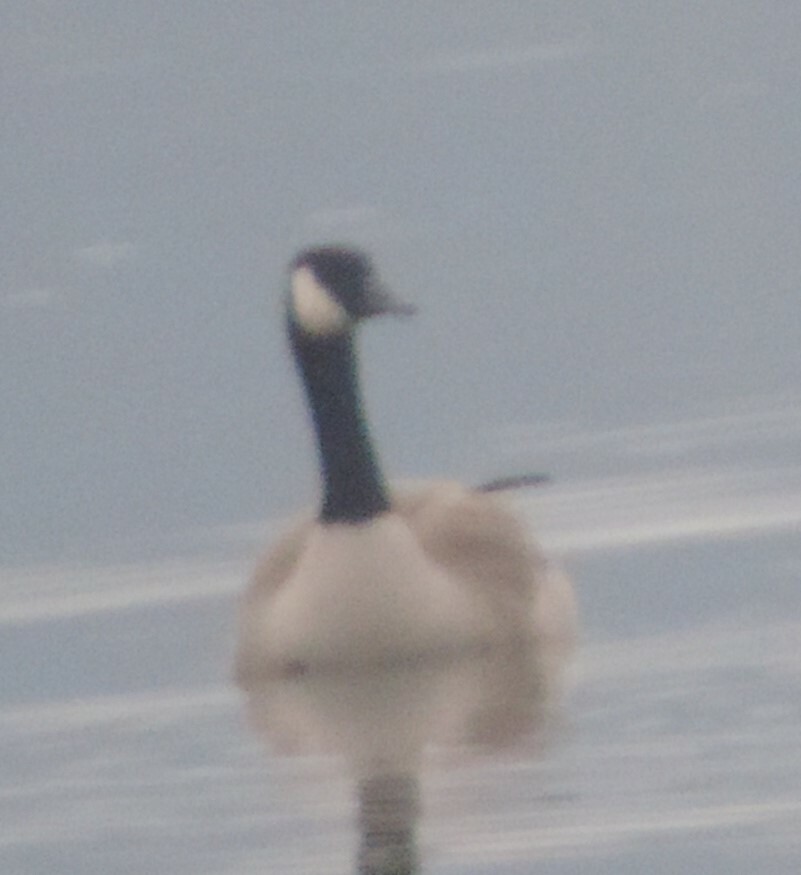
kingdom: Animalia
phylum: Chordata
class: Aves
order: Anseriformes
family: Anatidae
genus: Branta
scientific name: Branta canadensis
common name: Canada goose
